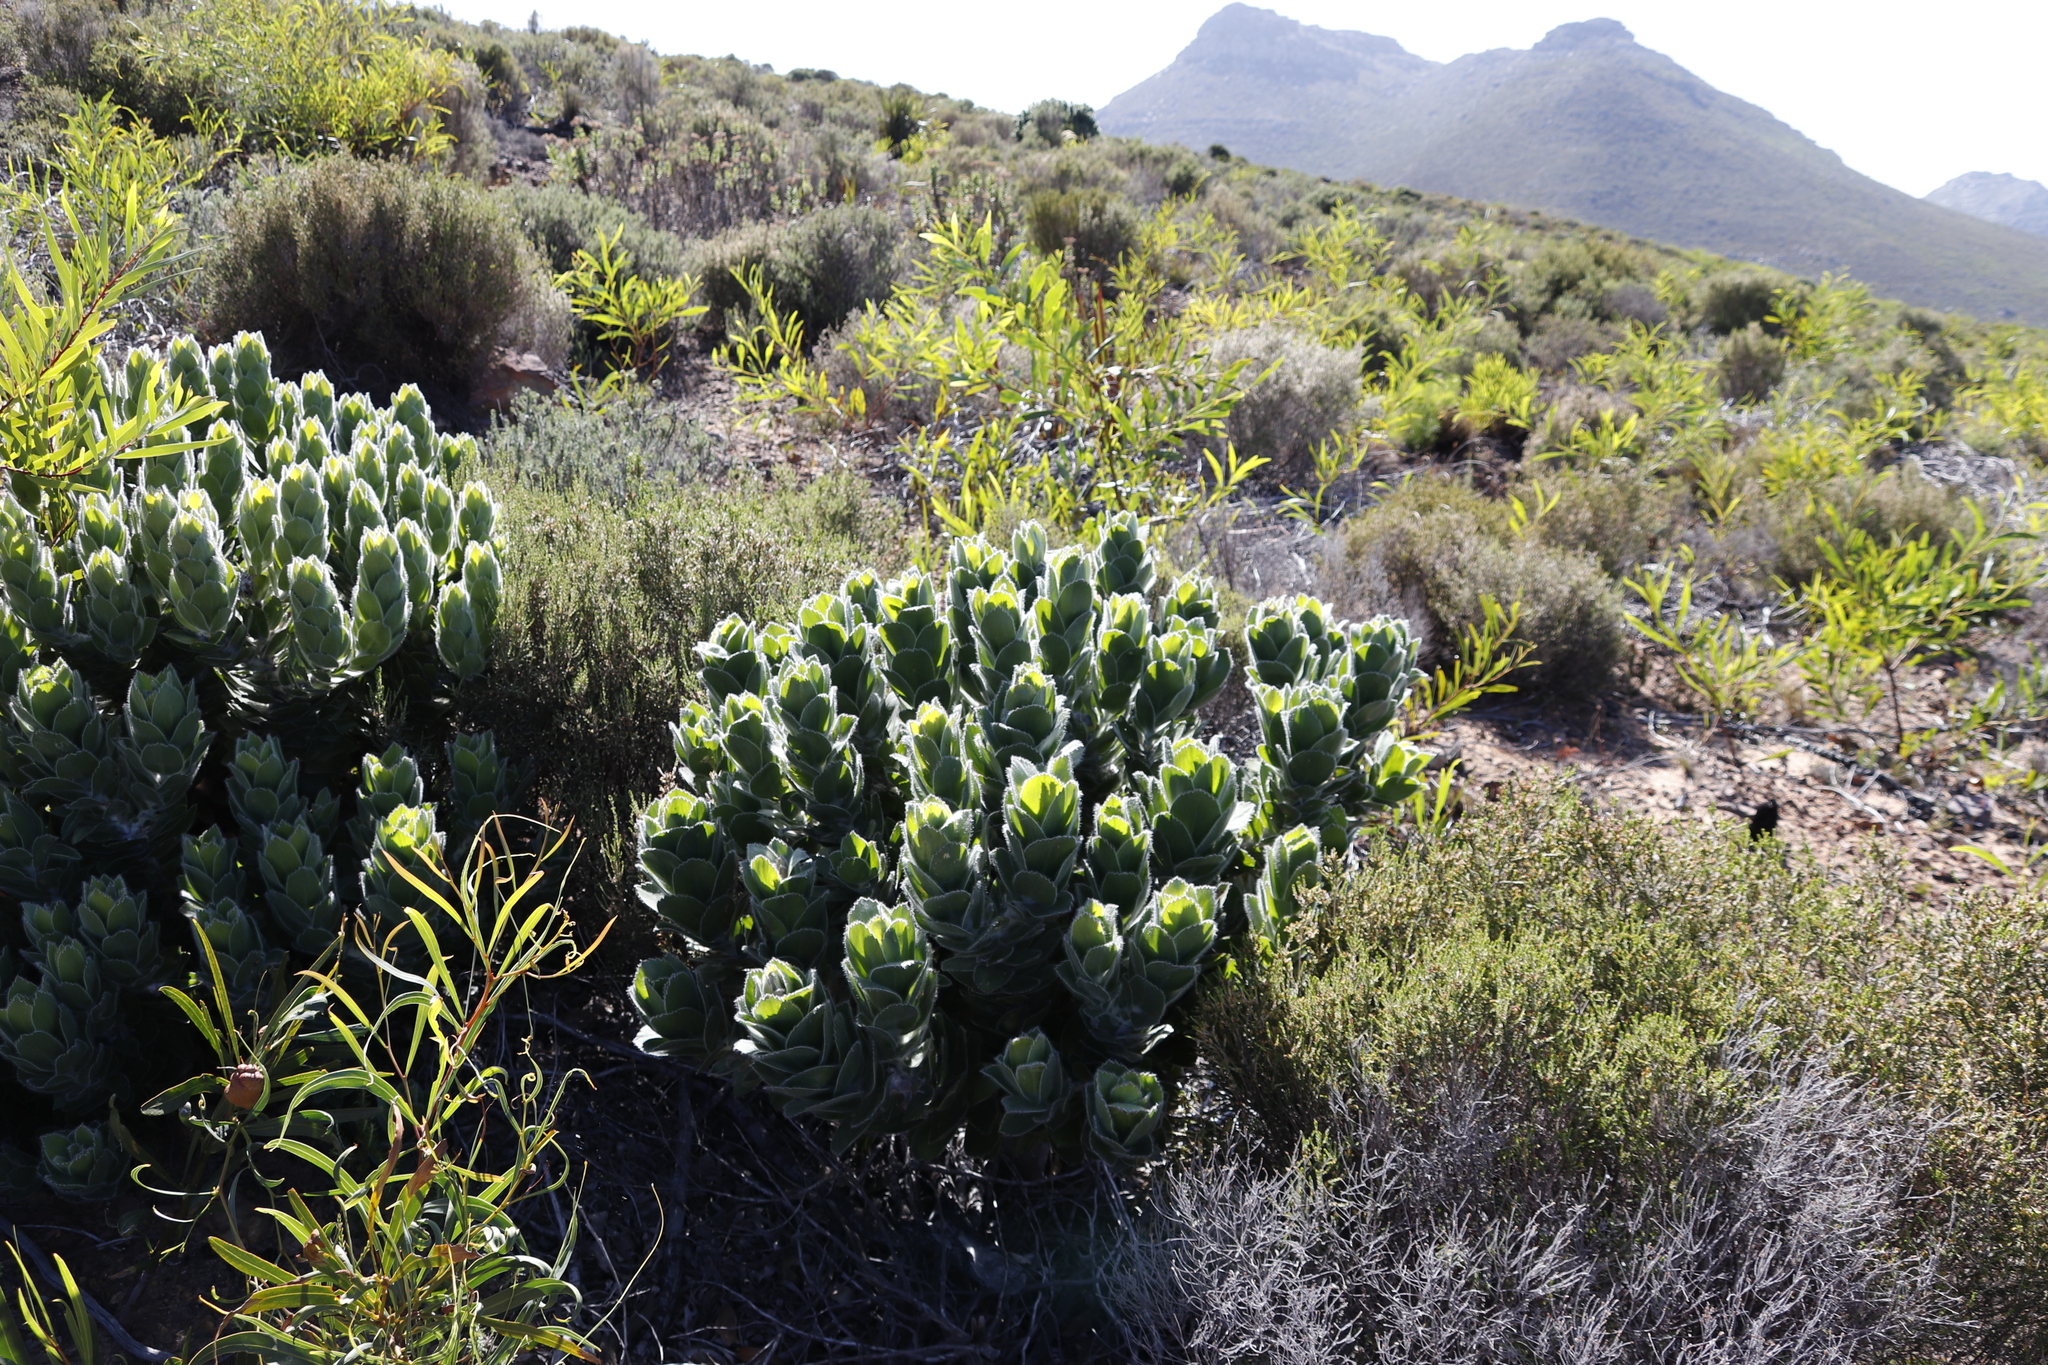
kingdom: Plantae
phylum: Tracheophyta
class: Magnoliopsida
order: Proteales
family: Proteaceae
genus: Leucospermum
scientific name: Leucospermum conocarpodendron
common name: Tree pincushion
